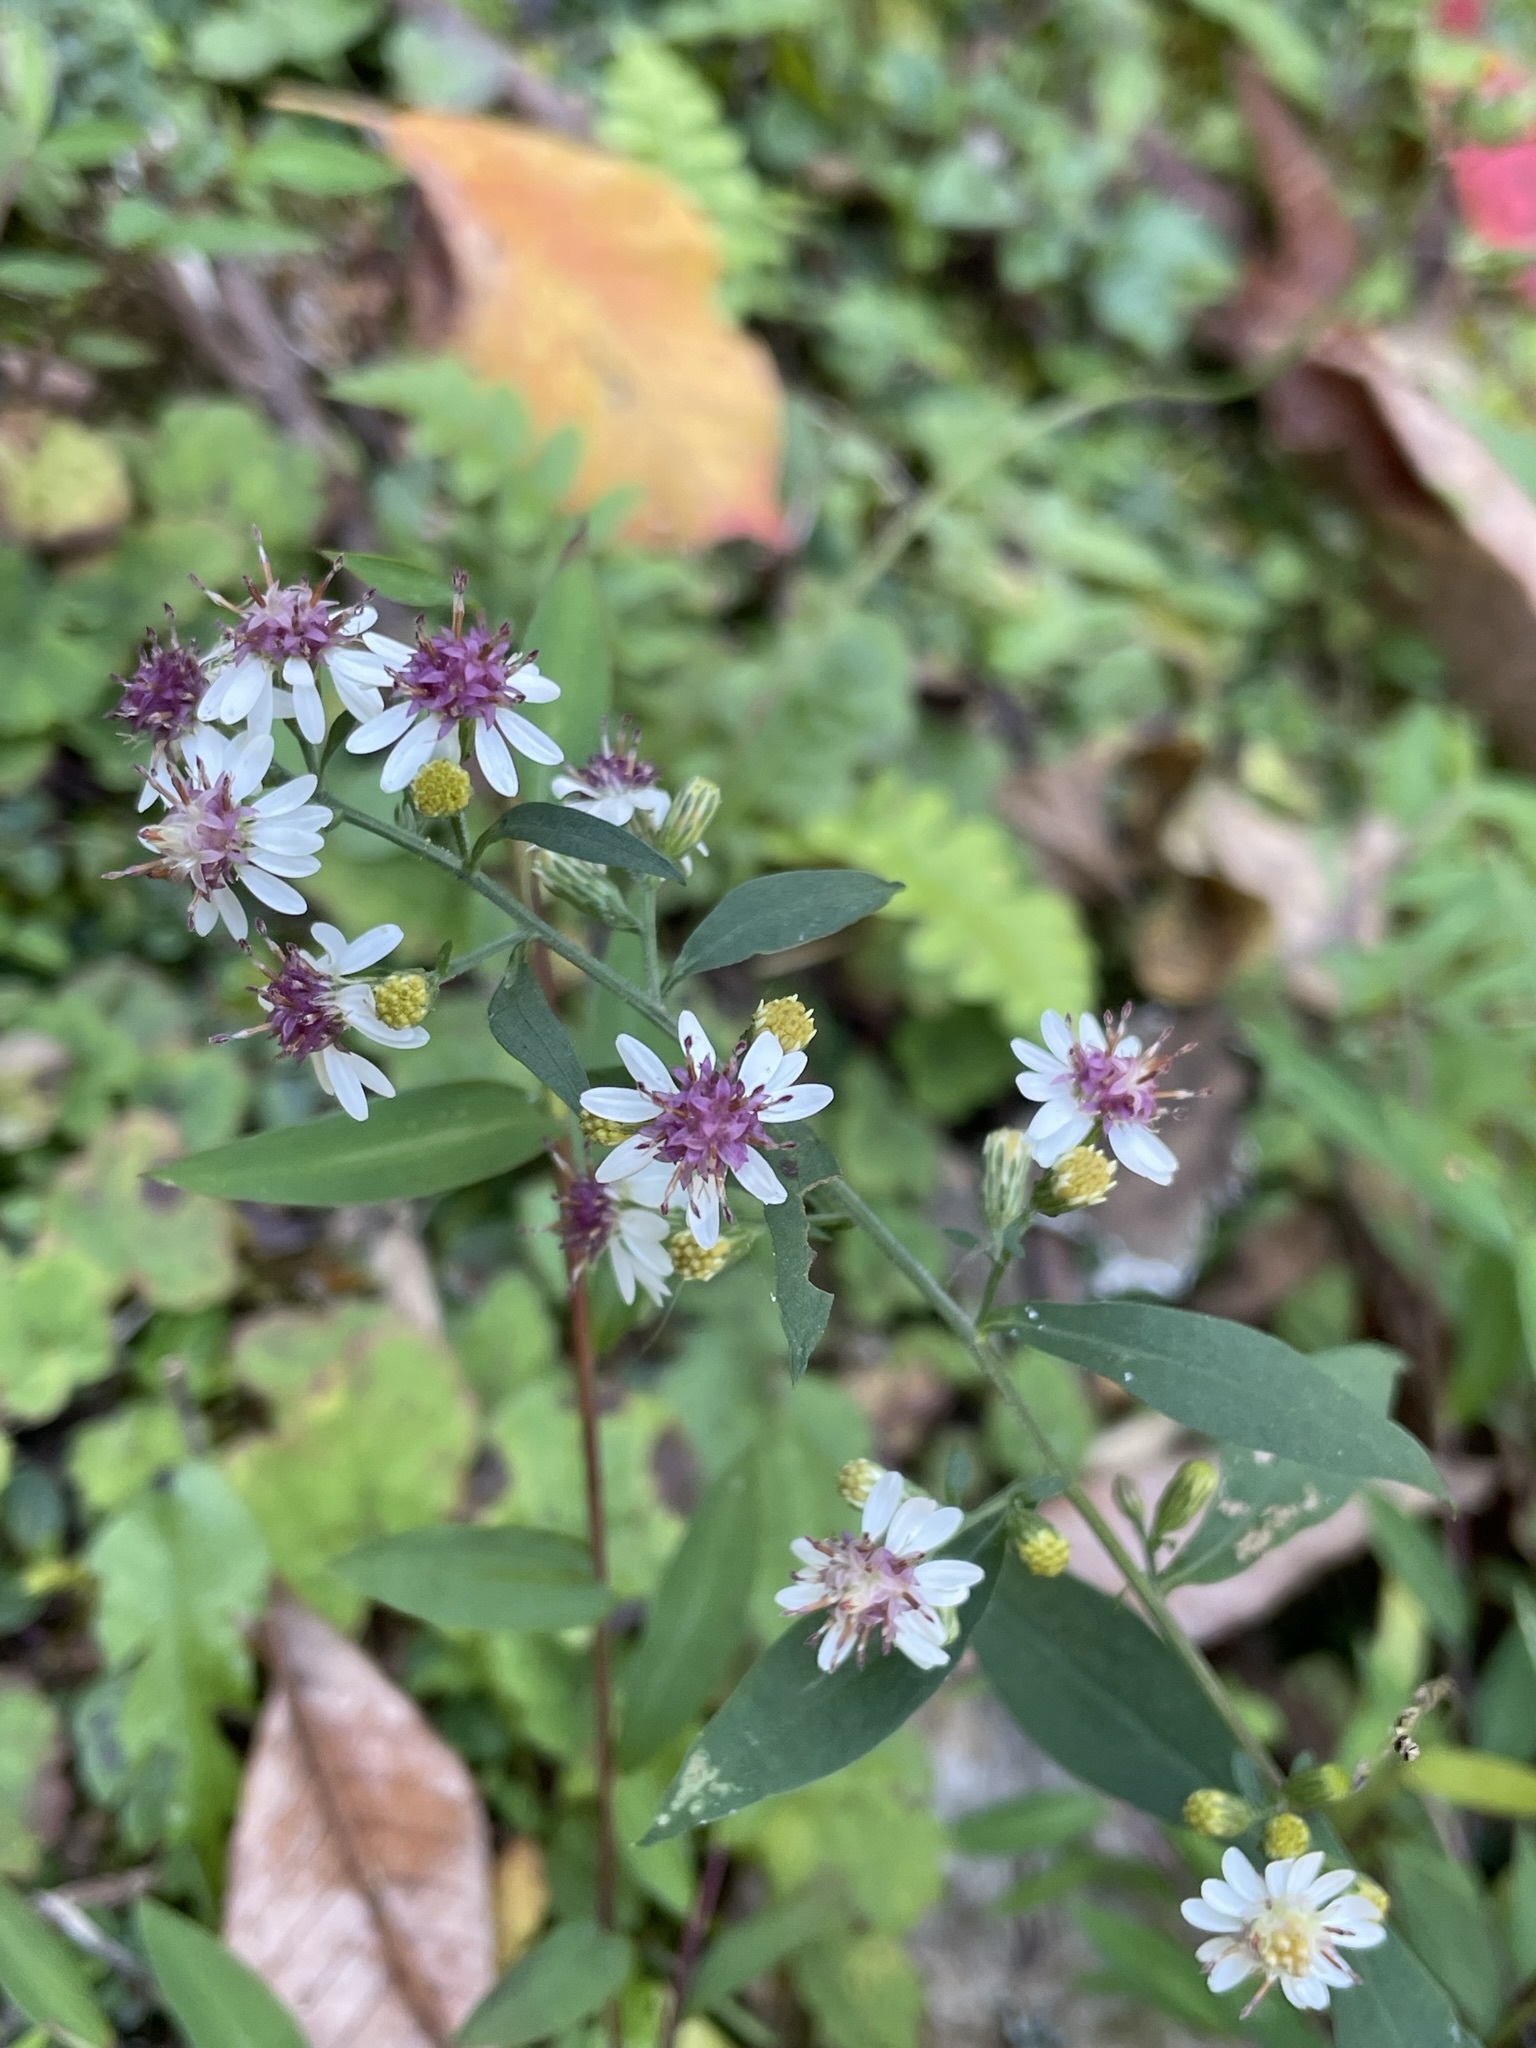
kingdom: Plantae
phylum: Tracheophyta
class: Magnoliopsida
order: Asterales
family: Asteraceae
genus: Symphyotrichum
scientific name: Symphyotrichum lateriflorum
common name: Calico aster
